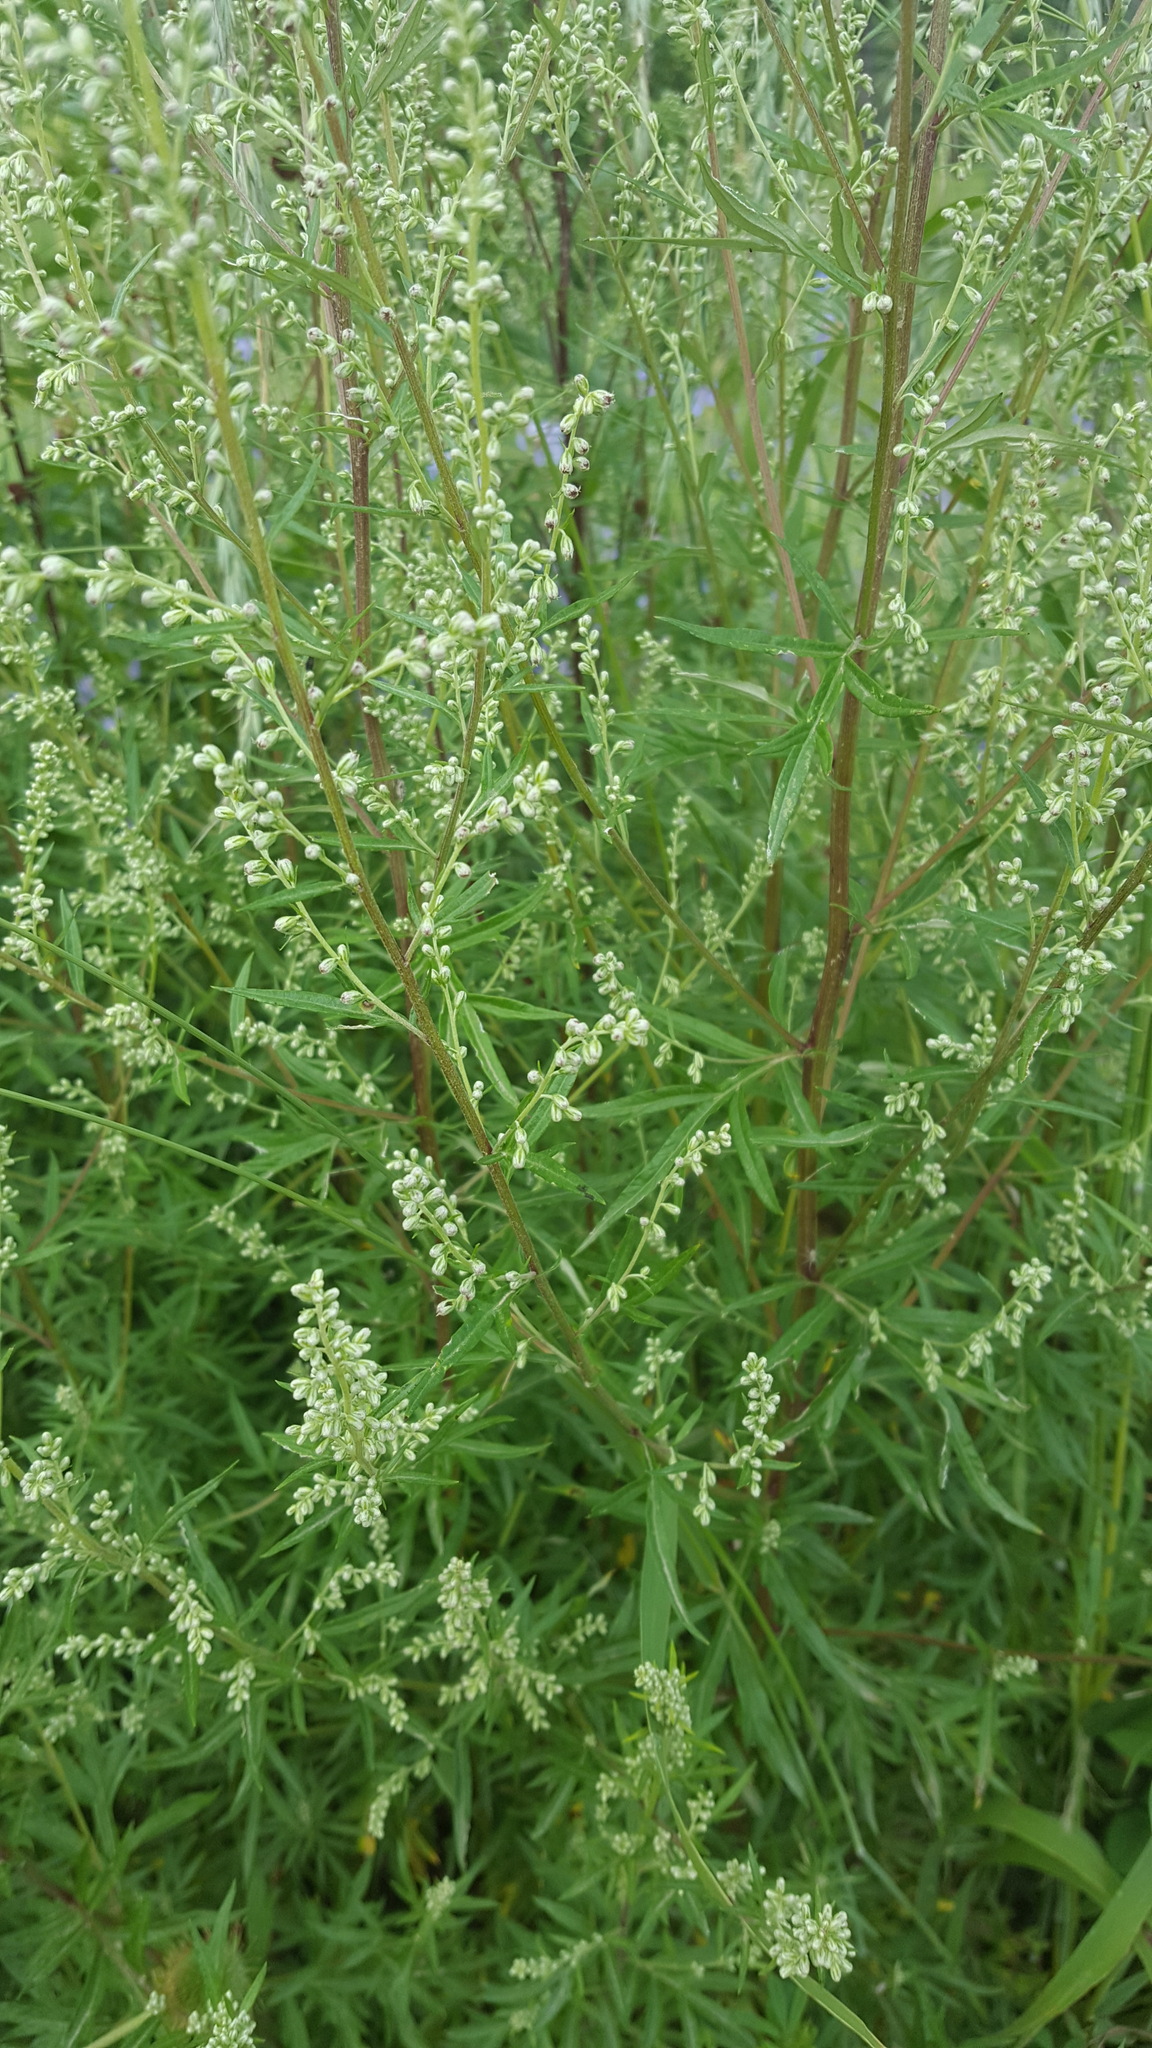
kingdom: Plantae
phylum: Tracheophyta
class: Magnoliopsida
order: Asterales
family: Asteraceae
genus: Artemisia
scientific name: Artemisia vulgaris
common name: Mugwort
